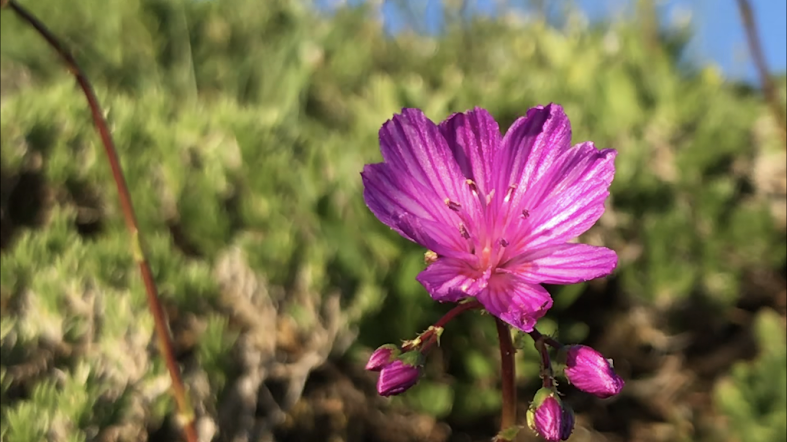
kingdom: Plantae
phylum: Tracheophyta
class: Magnoliopsida
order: Caryophyllales
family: Montiaceae
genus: Lewisia
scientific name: Lewisia columbiana
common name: Columbia lewisia
